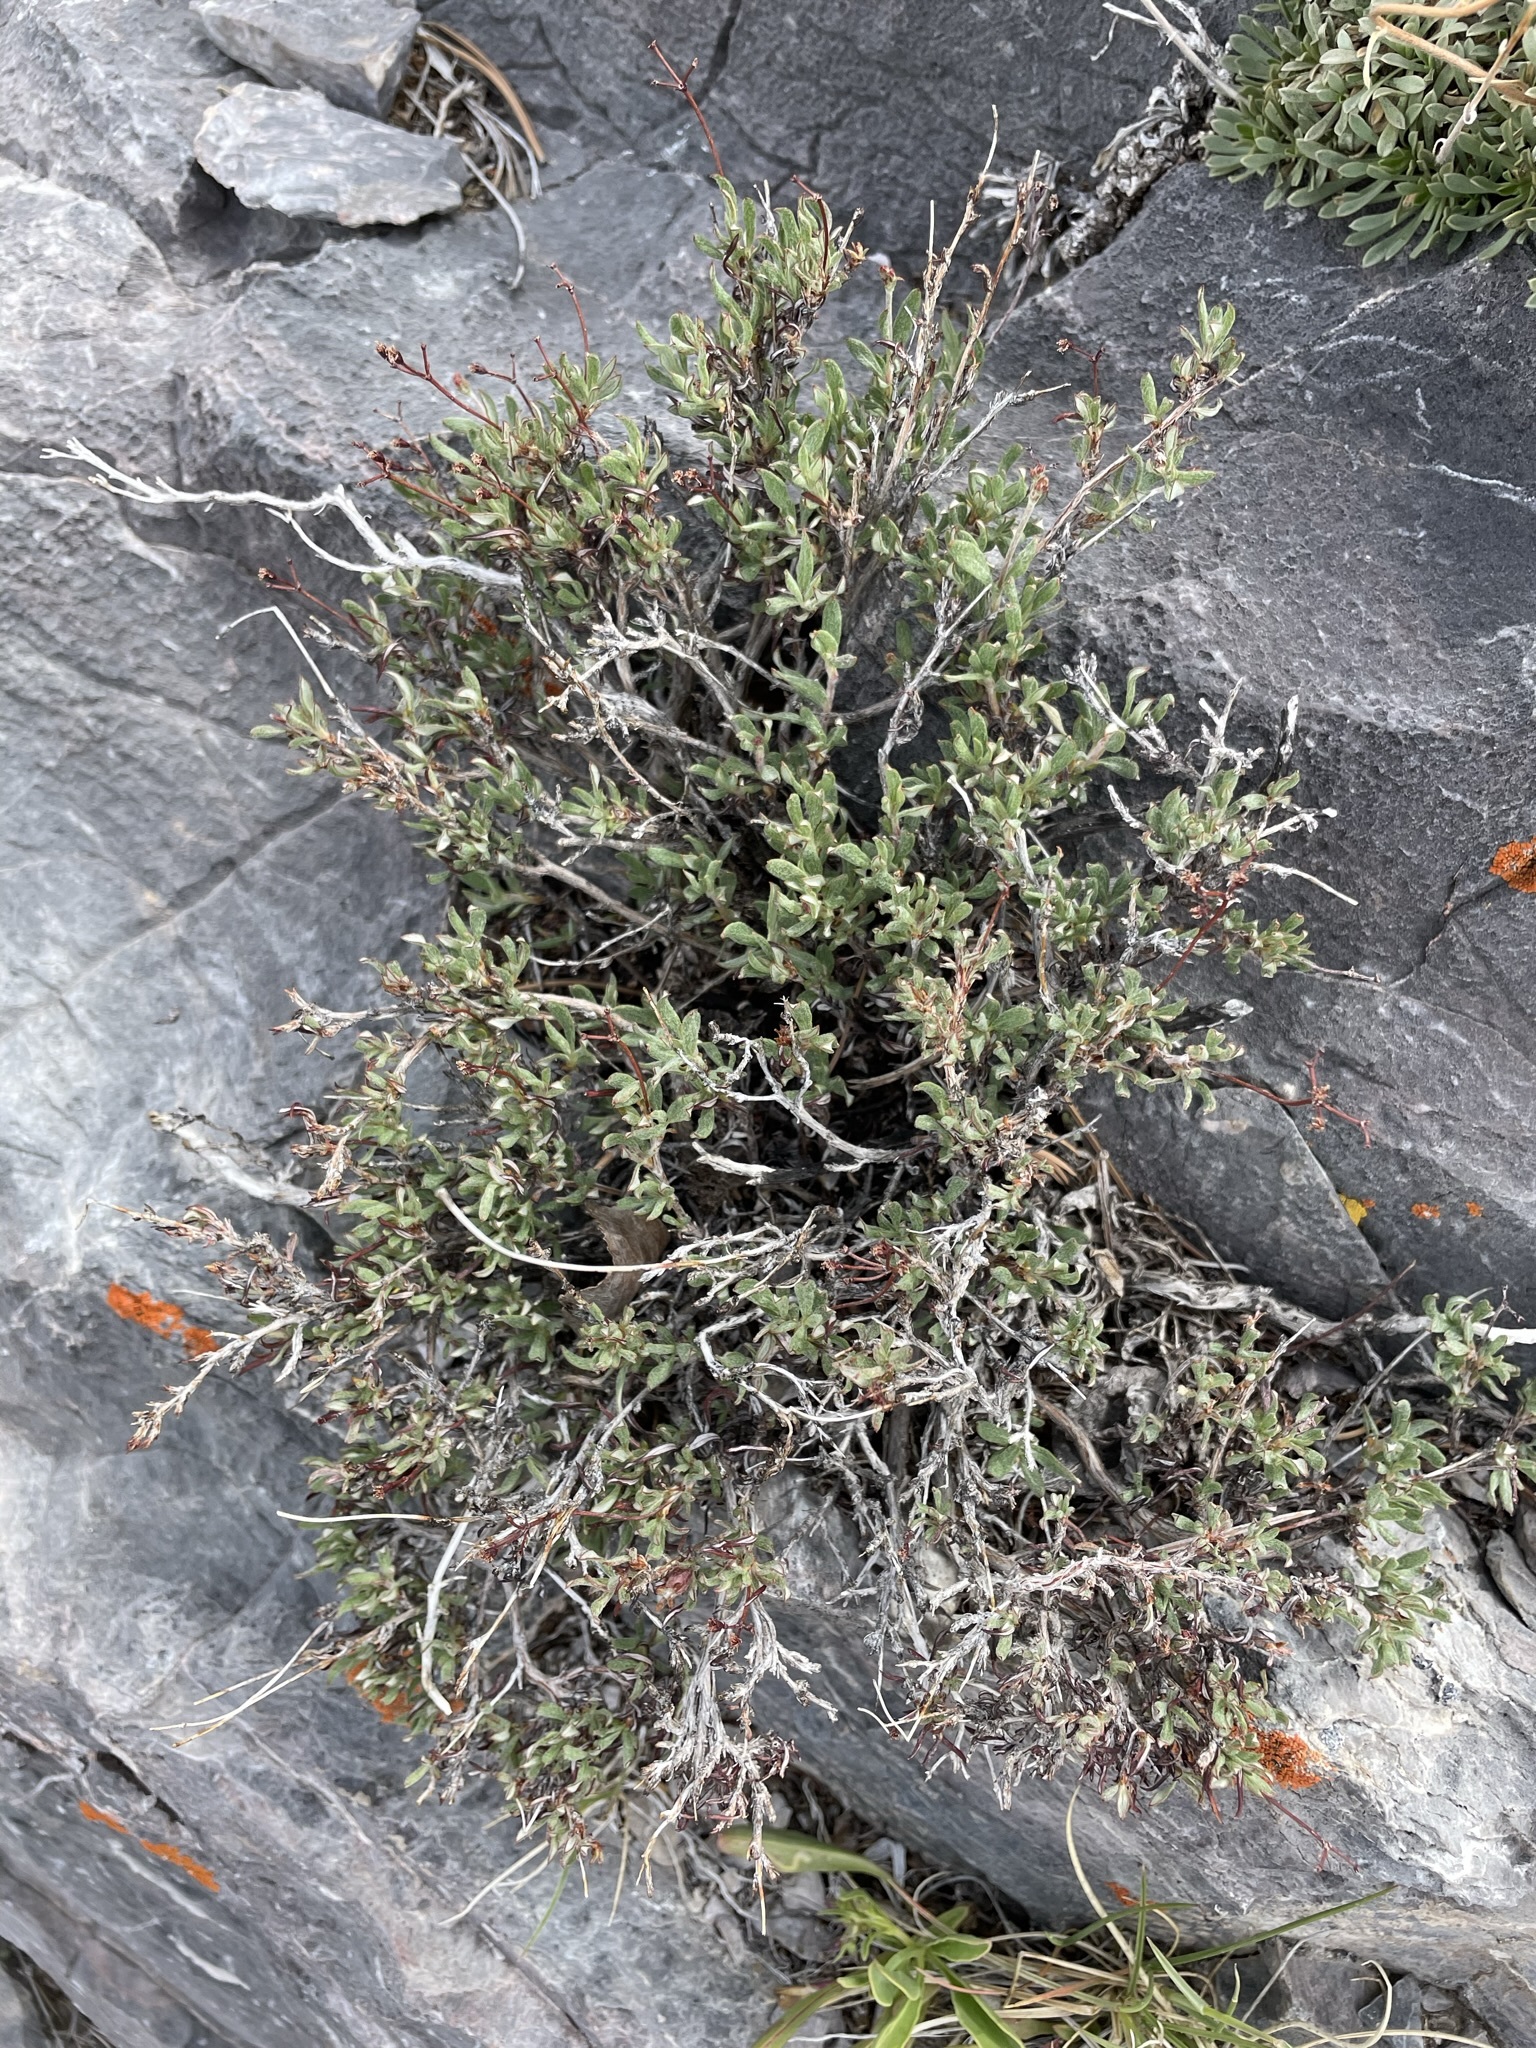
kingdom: Plantae
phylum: Tracheophyta
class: Magnoliopsida
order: Caryophyllales
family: Polygonaceae
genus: Eriogonum
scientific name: Eriogonum microtheca
